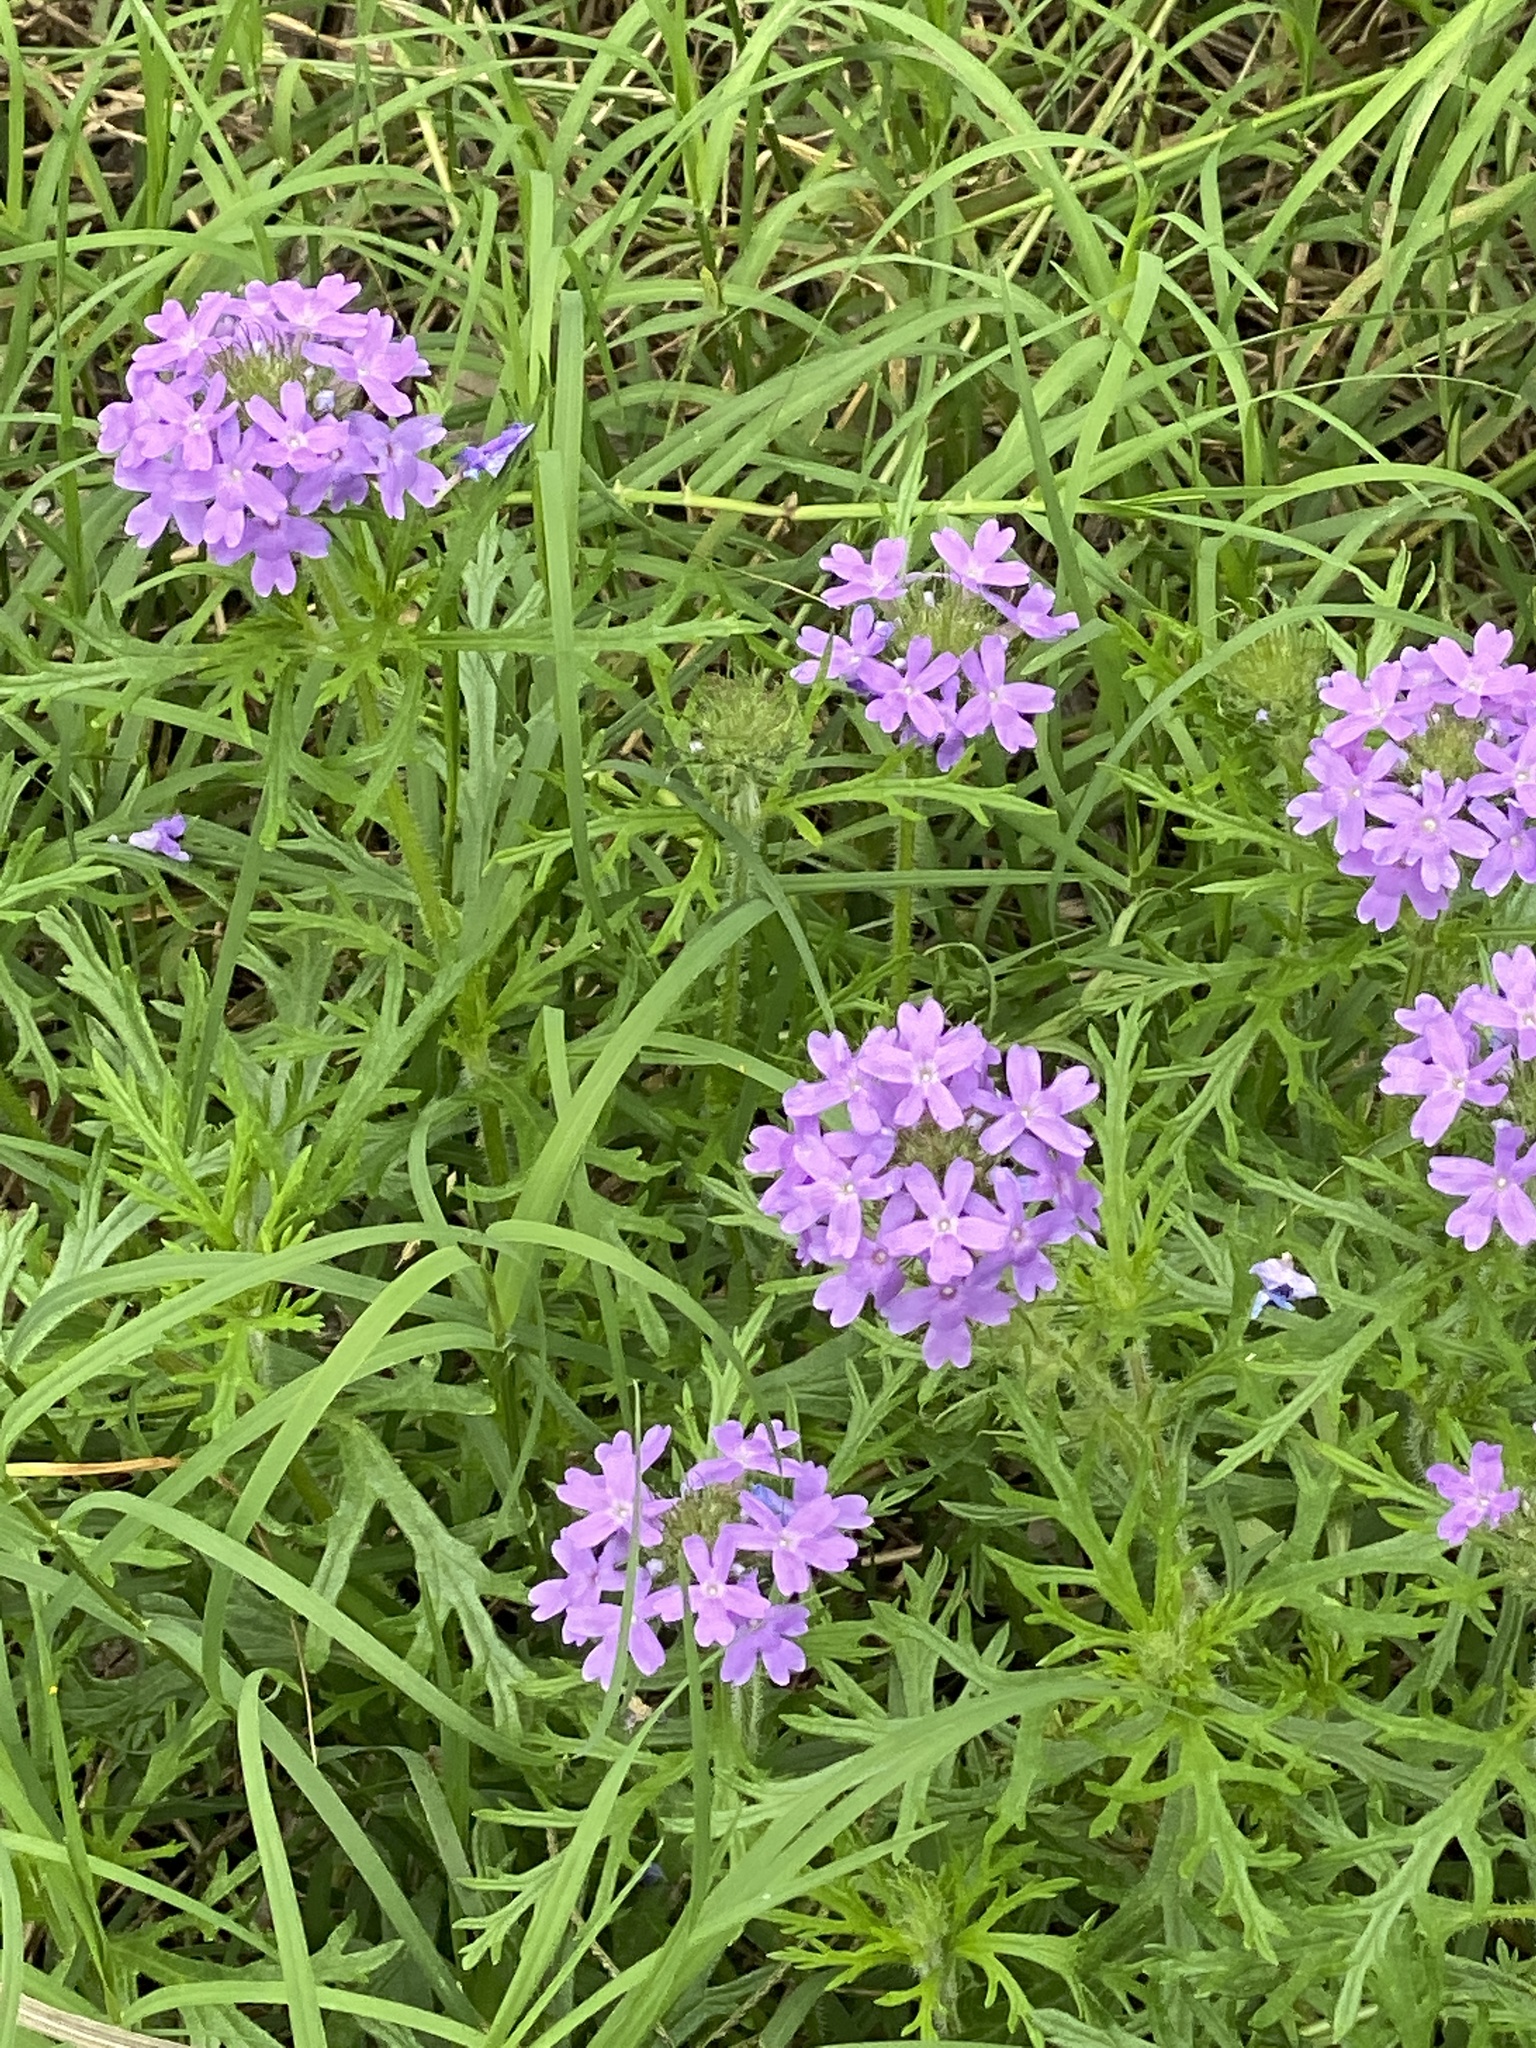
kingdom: Plantae
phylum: Tracheophyta
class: Magnoliopsida
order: Lamiales
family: Verbenaceae
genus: Verbena
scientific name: Verbena bipinnatifida
